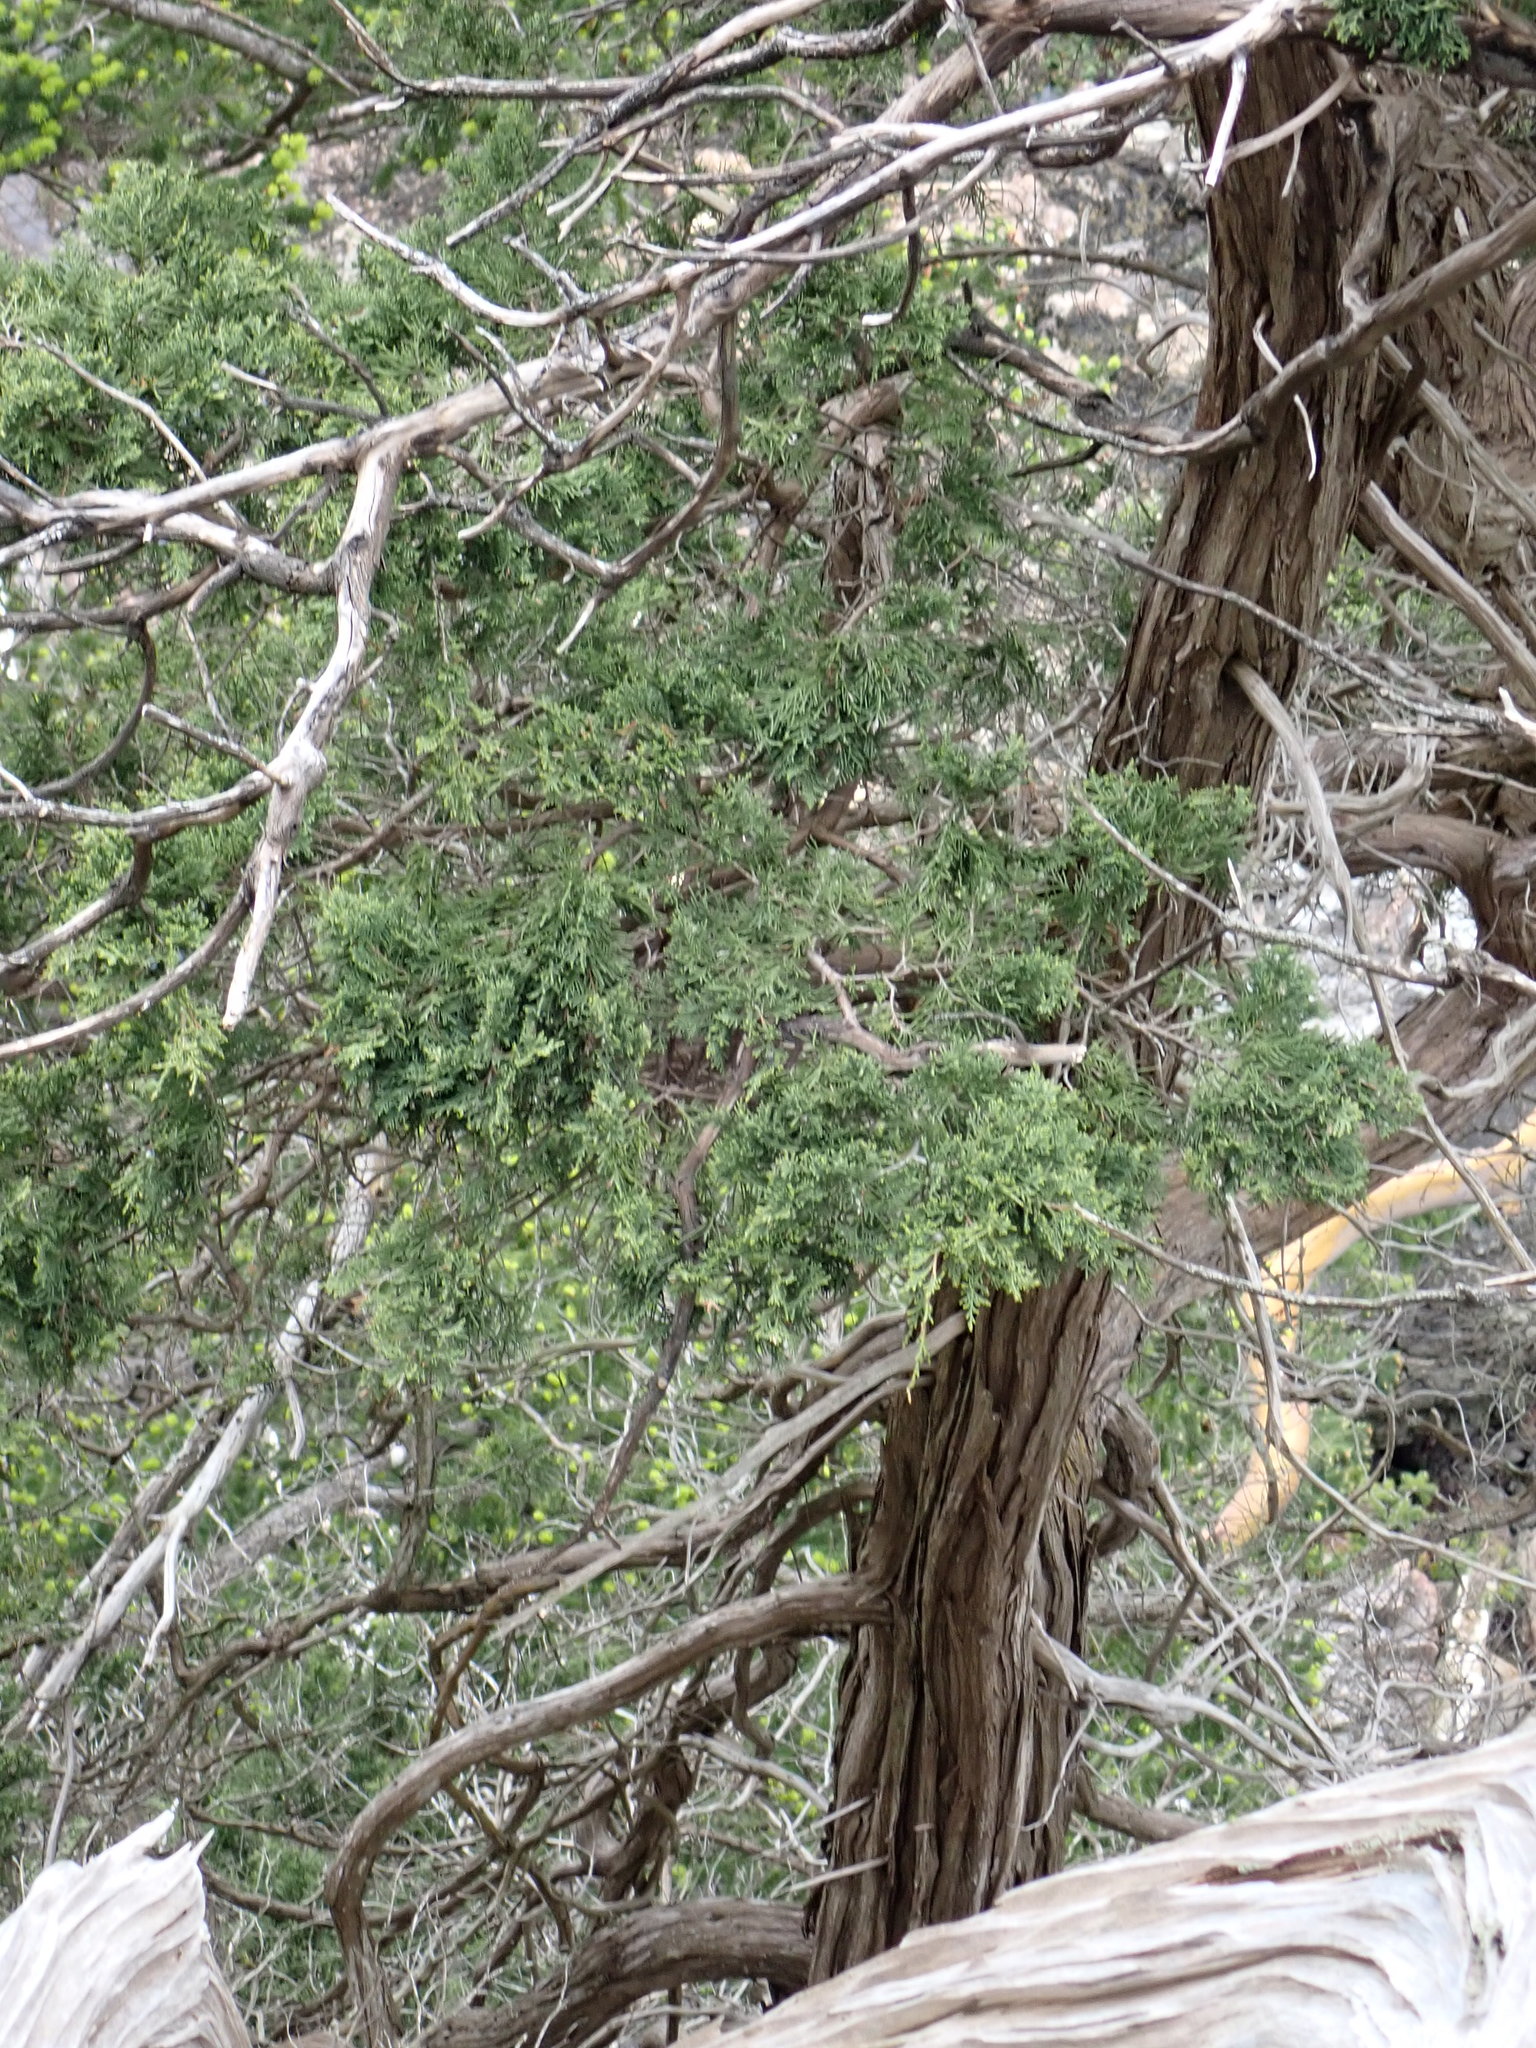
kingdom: Plantae
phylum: Tracheophyta
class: Pinopsida
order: Pinales
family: Cupressaceae
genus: Juniperus
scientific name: Juniperus scopulorum
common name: Rocky mountain juniper
